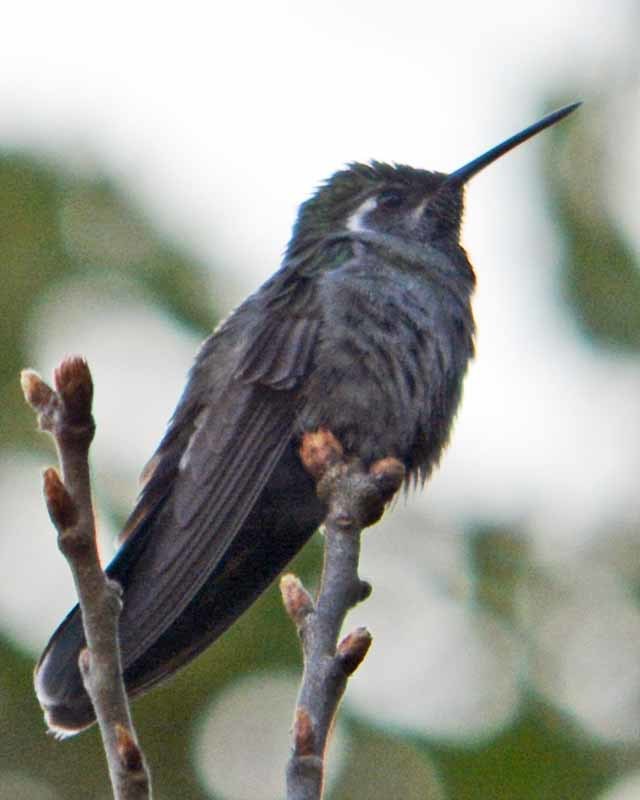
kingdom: Animalia
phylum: Chordata
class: Aves
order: Apodiformes
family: Trochilidae
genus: Lampornis
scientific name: Lampornis clemenciae
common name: Blue-throated mountaingem
